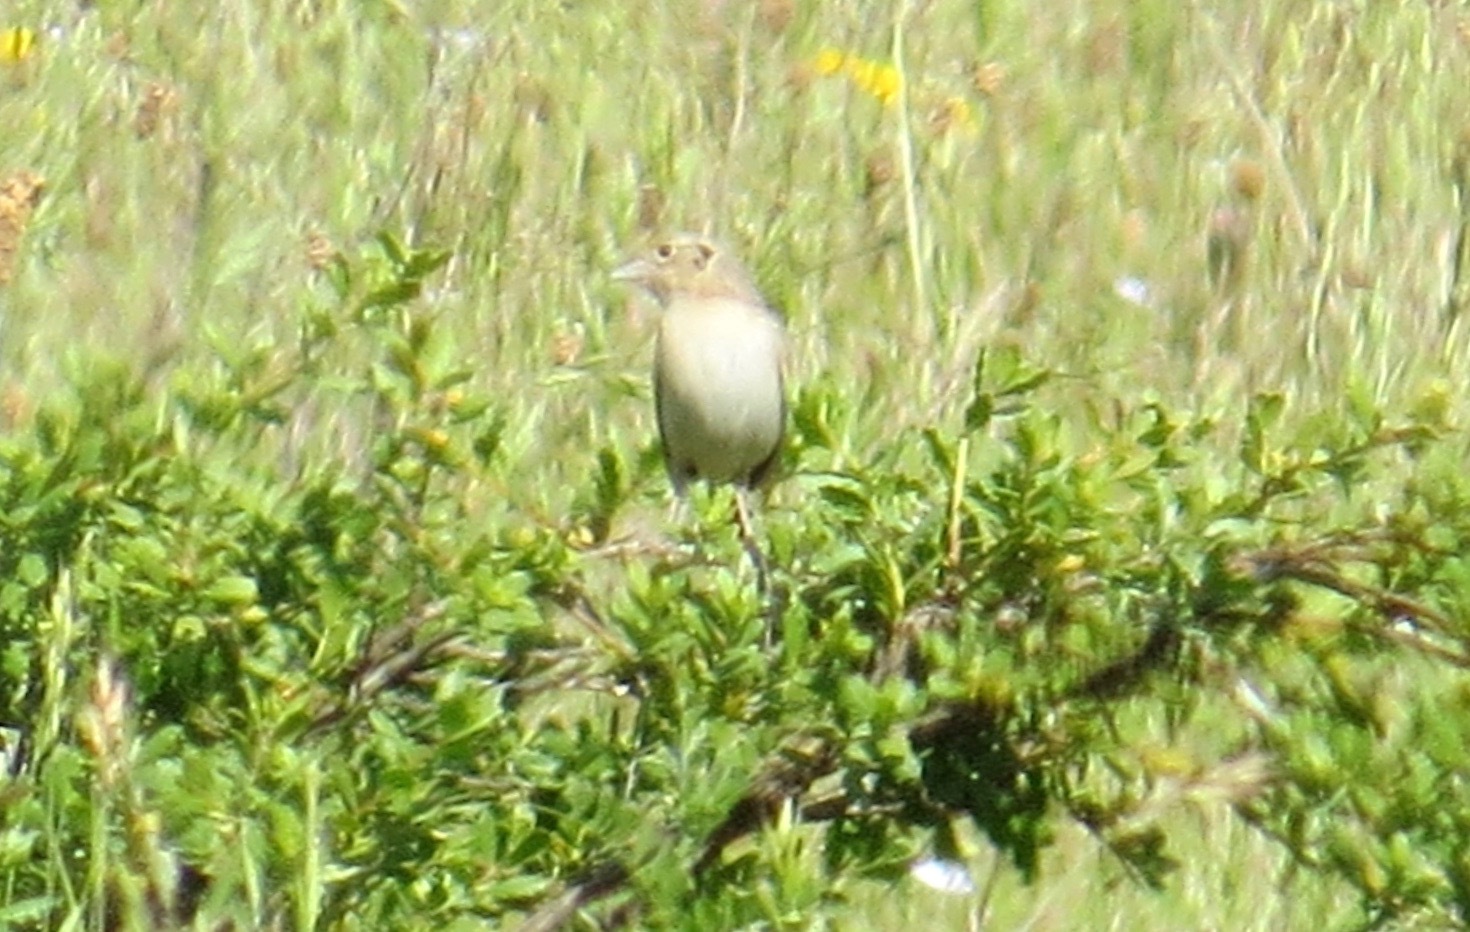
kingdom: Animalia
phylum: Chordata
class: Aves
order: Passeriformes
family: Passerellidae
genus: Ammodramus
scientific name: Ammodramus savannarum
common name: Grasshopper sparrow
